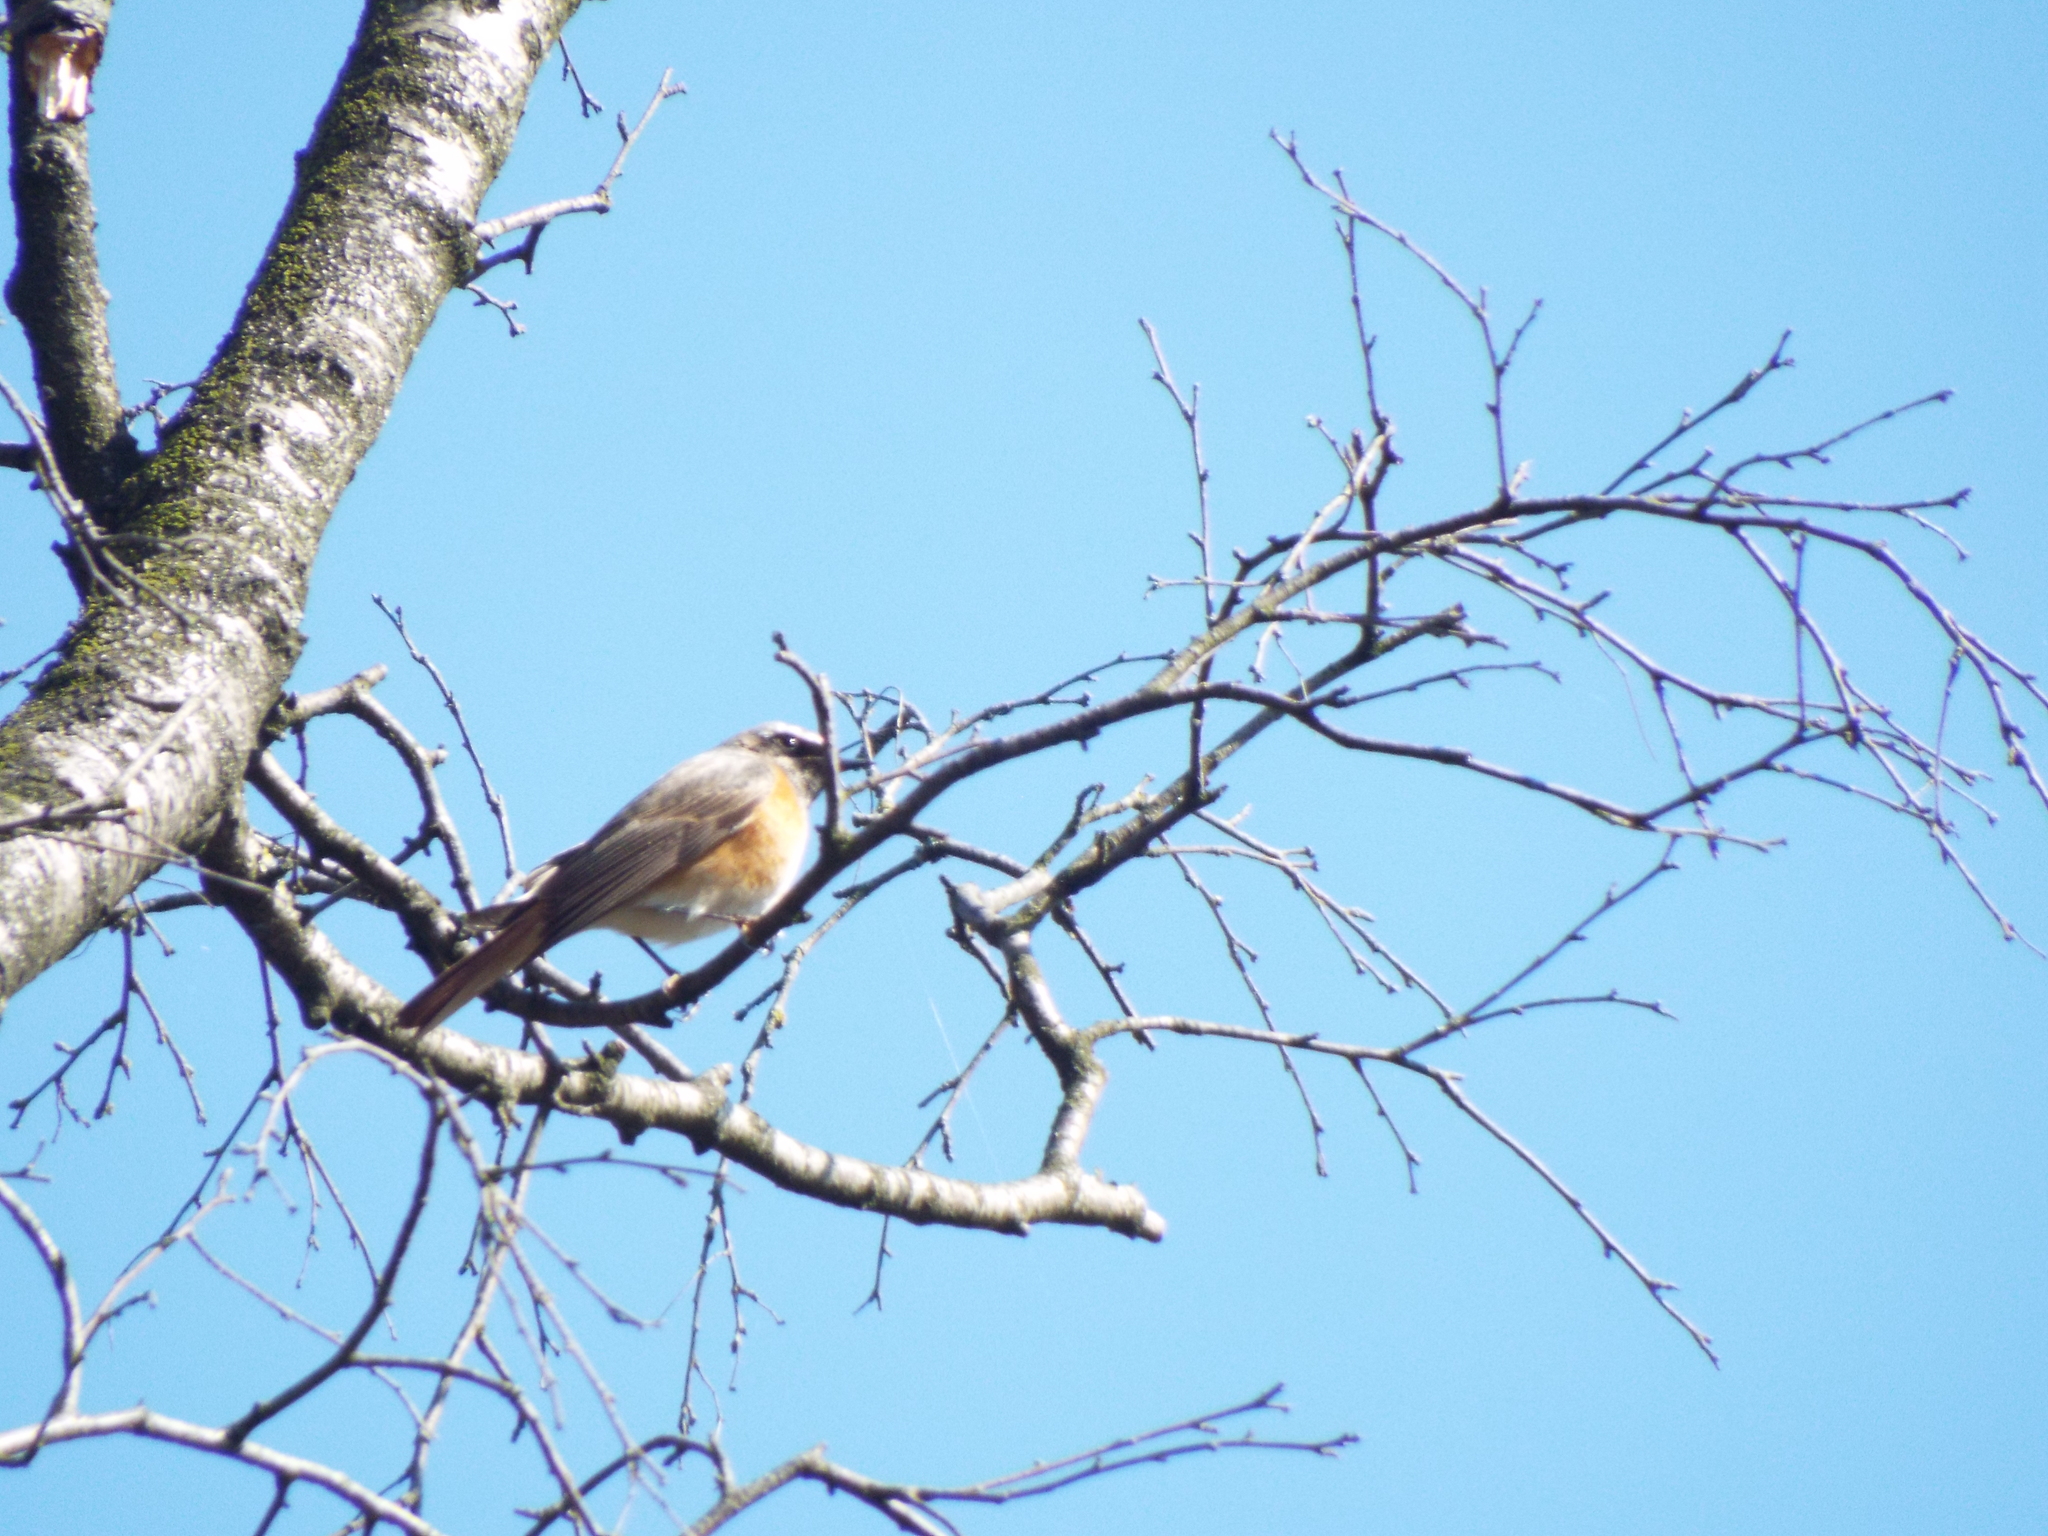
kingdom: Animalia
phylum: Chordata
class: Aves
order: Passeriformes
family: Muscicapidae
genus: Phoenicurus
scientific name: Phoenicurus phoenicurus
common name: Common redstart
